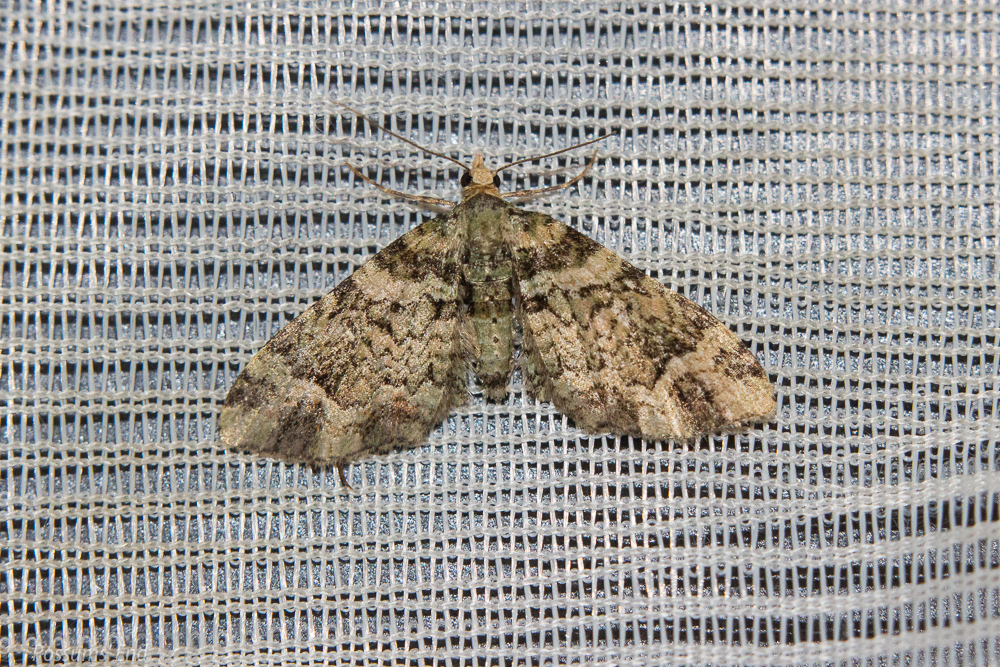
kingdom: Animalia
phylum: Arthropoda
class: Insecta
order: Lepidoptera
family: Geometridae
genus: Idaea
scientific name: Idaea mutanda
